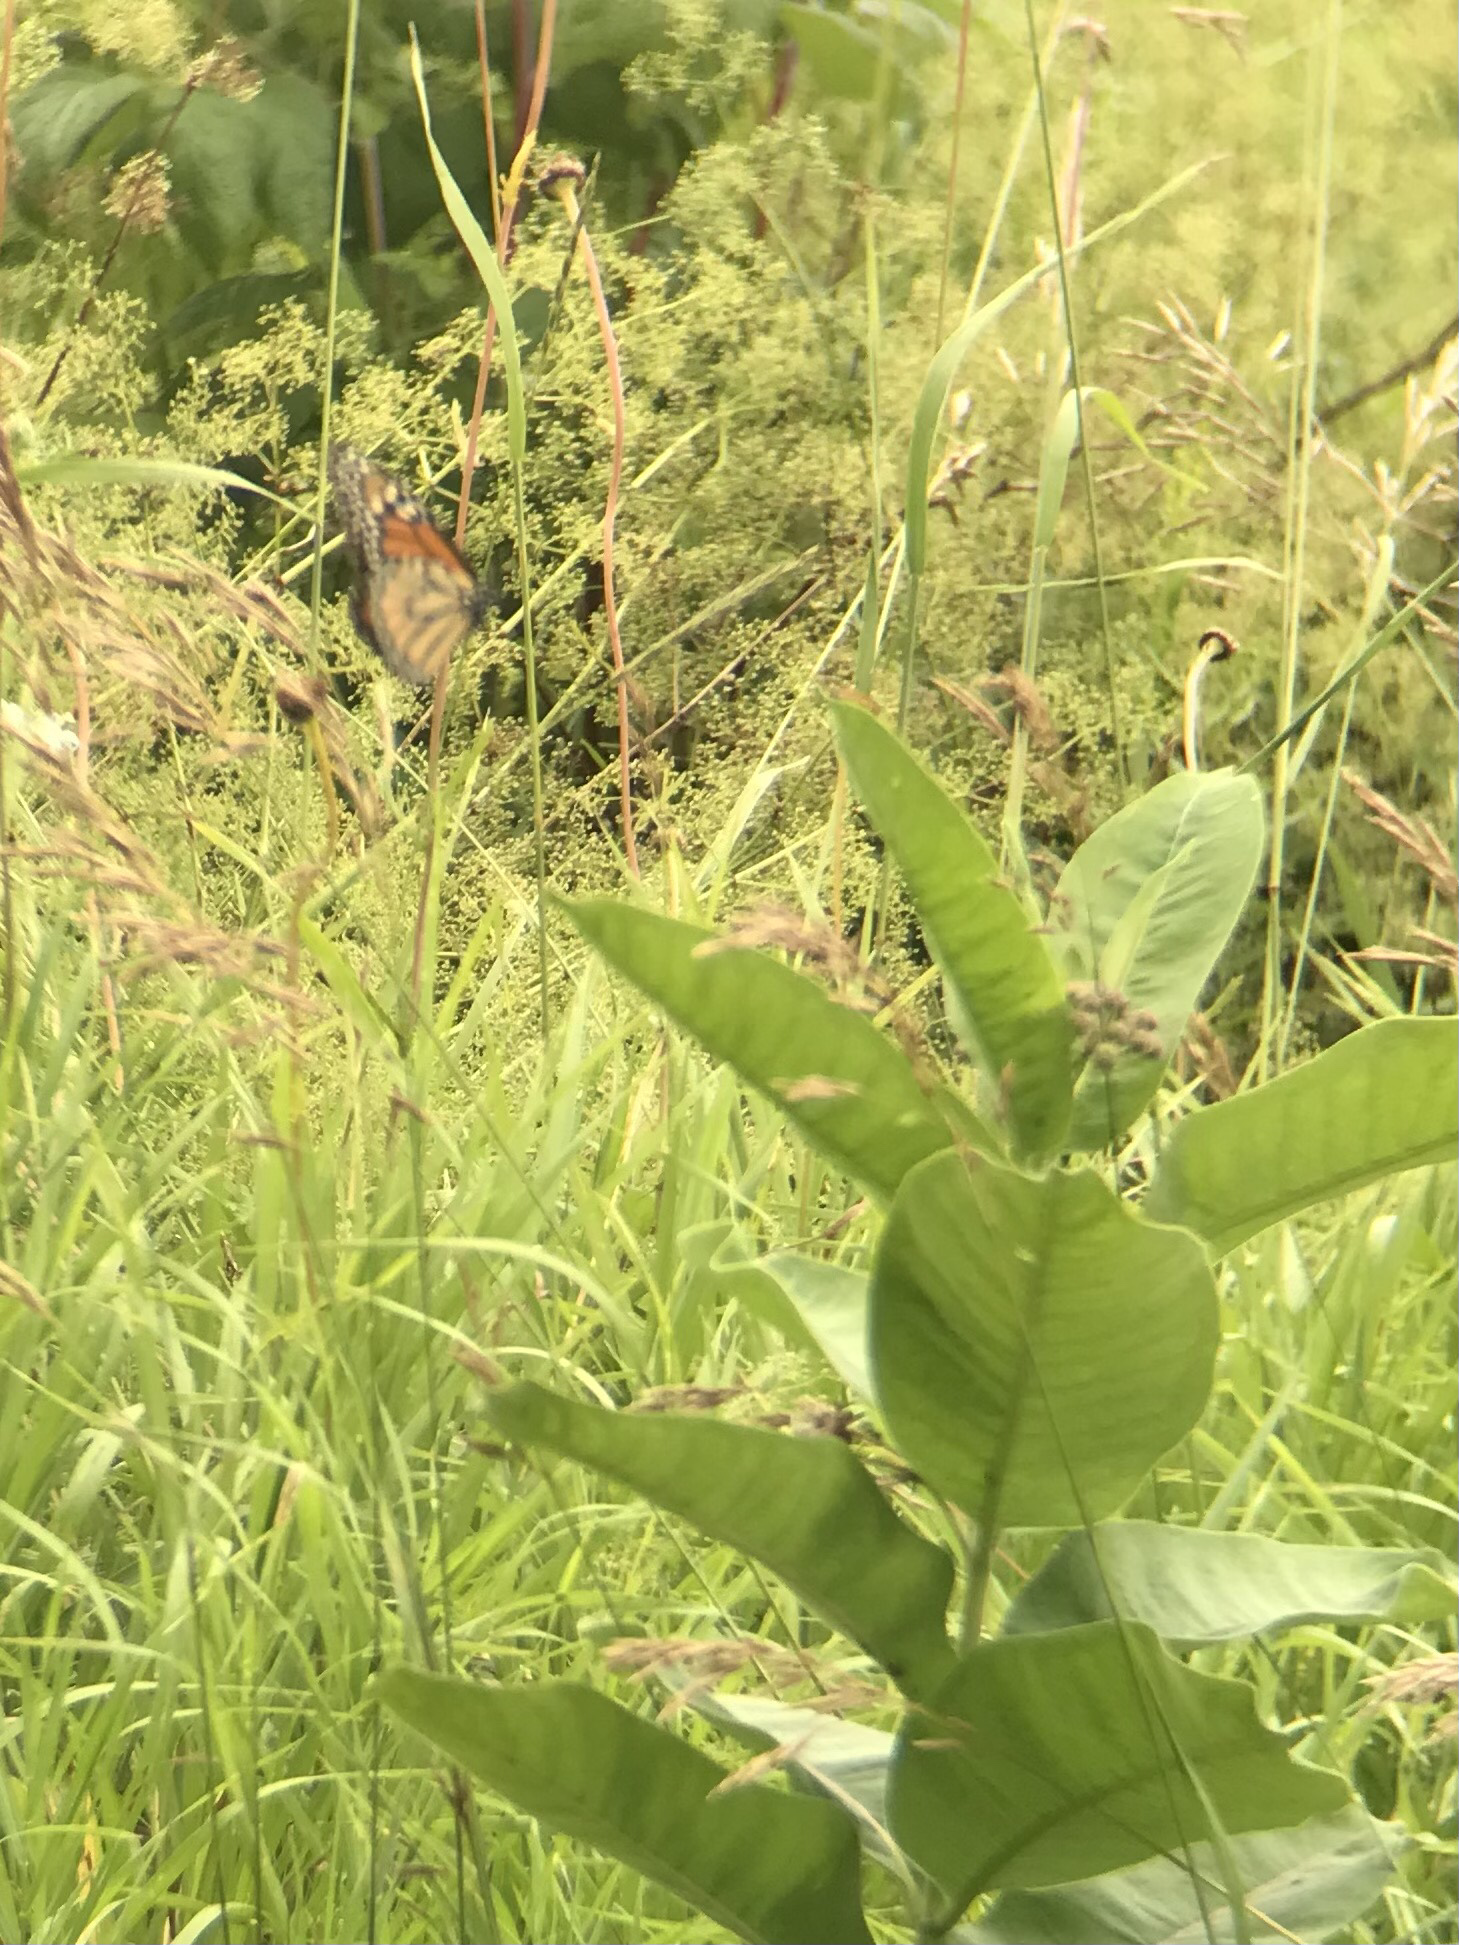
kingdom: Animalia
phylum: Arthropoda
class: Insecta
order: Lepidoptera
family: Nymphalidae
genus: Danaus
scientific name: Danaus plexippus
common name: Monarch
